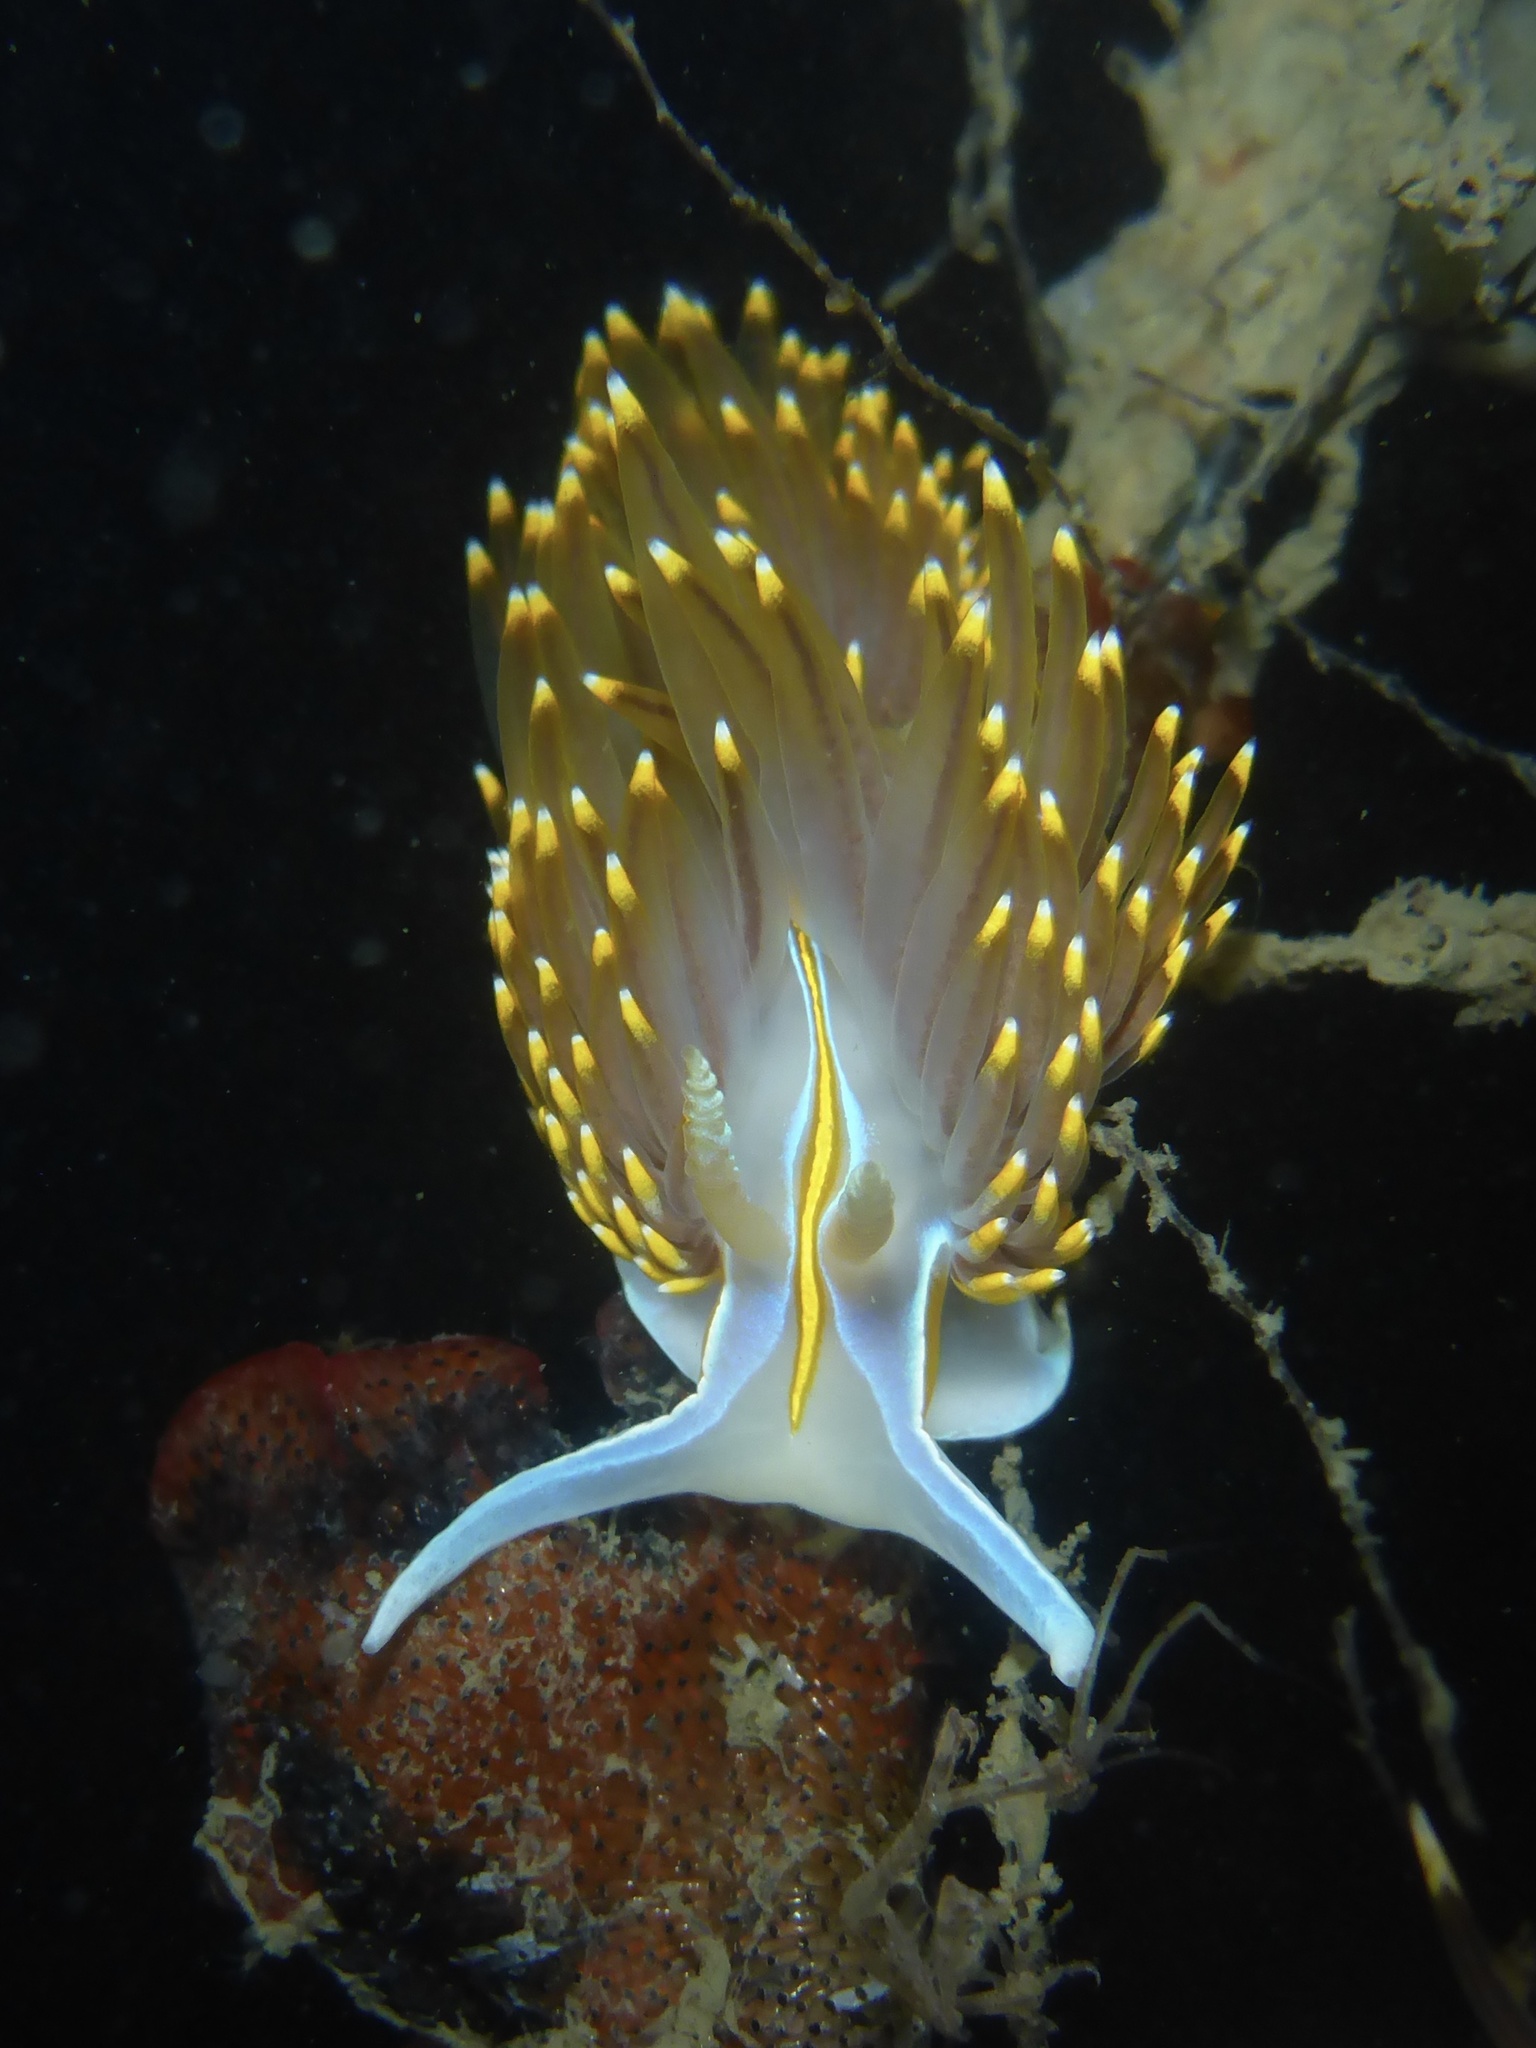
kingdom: Animalia
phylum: Mollusca
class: Gastropoda
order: Nudibranchia
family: Myrrhinidae
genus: Hermissenda
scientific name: Hermissenda opalescens
